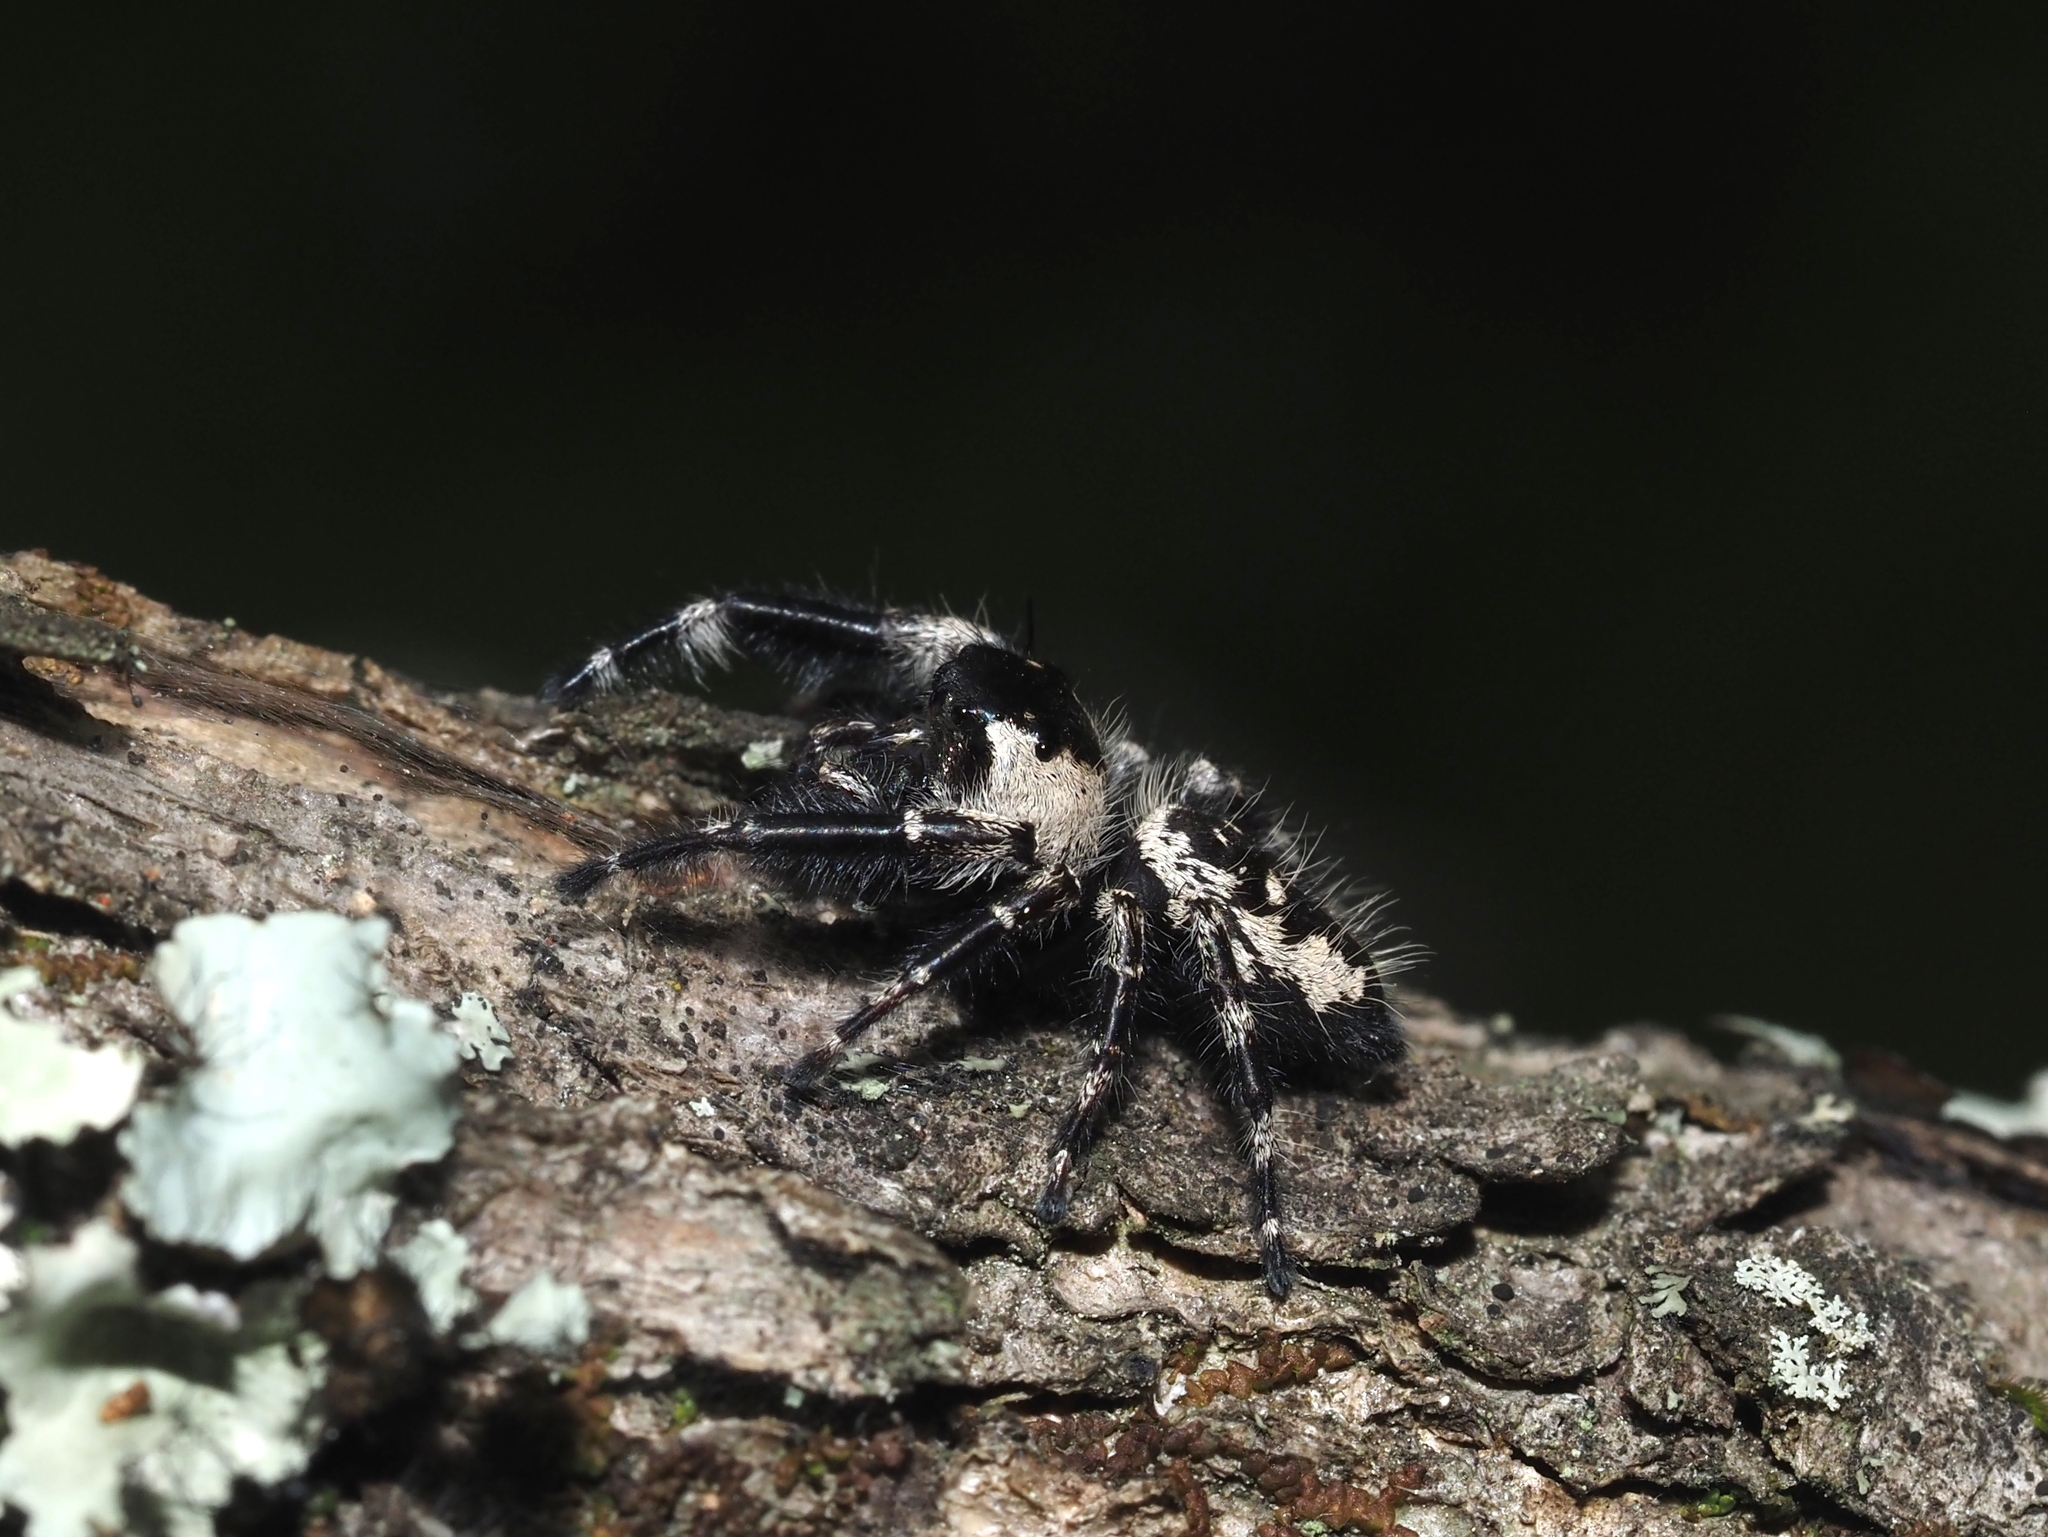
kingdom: Animalia
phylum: Arthropoda
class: Arachnida
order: Araneae
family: Salticidae
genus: Phidippus
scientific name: Phidippus otiosus
